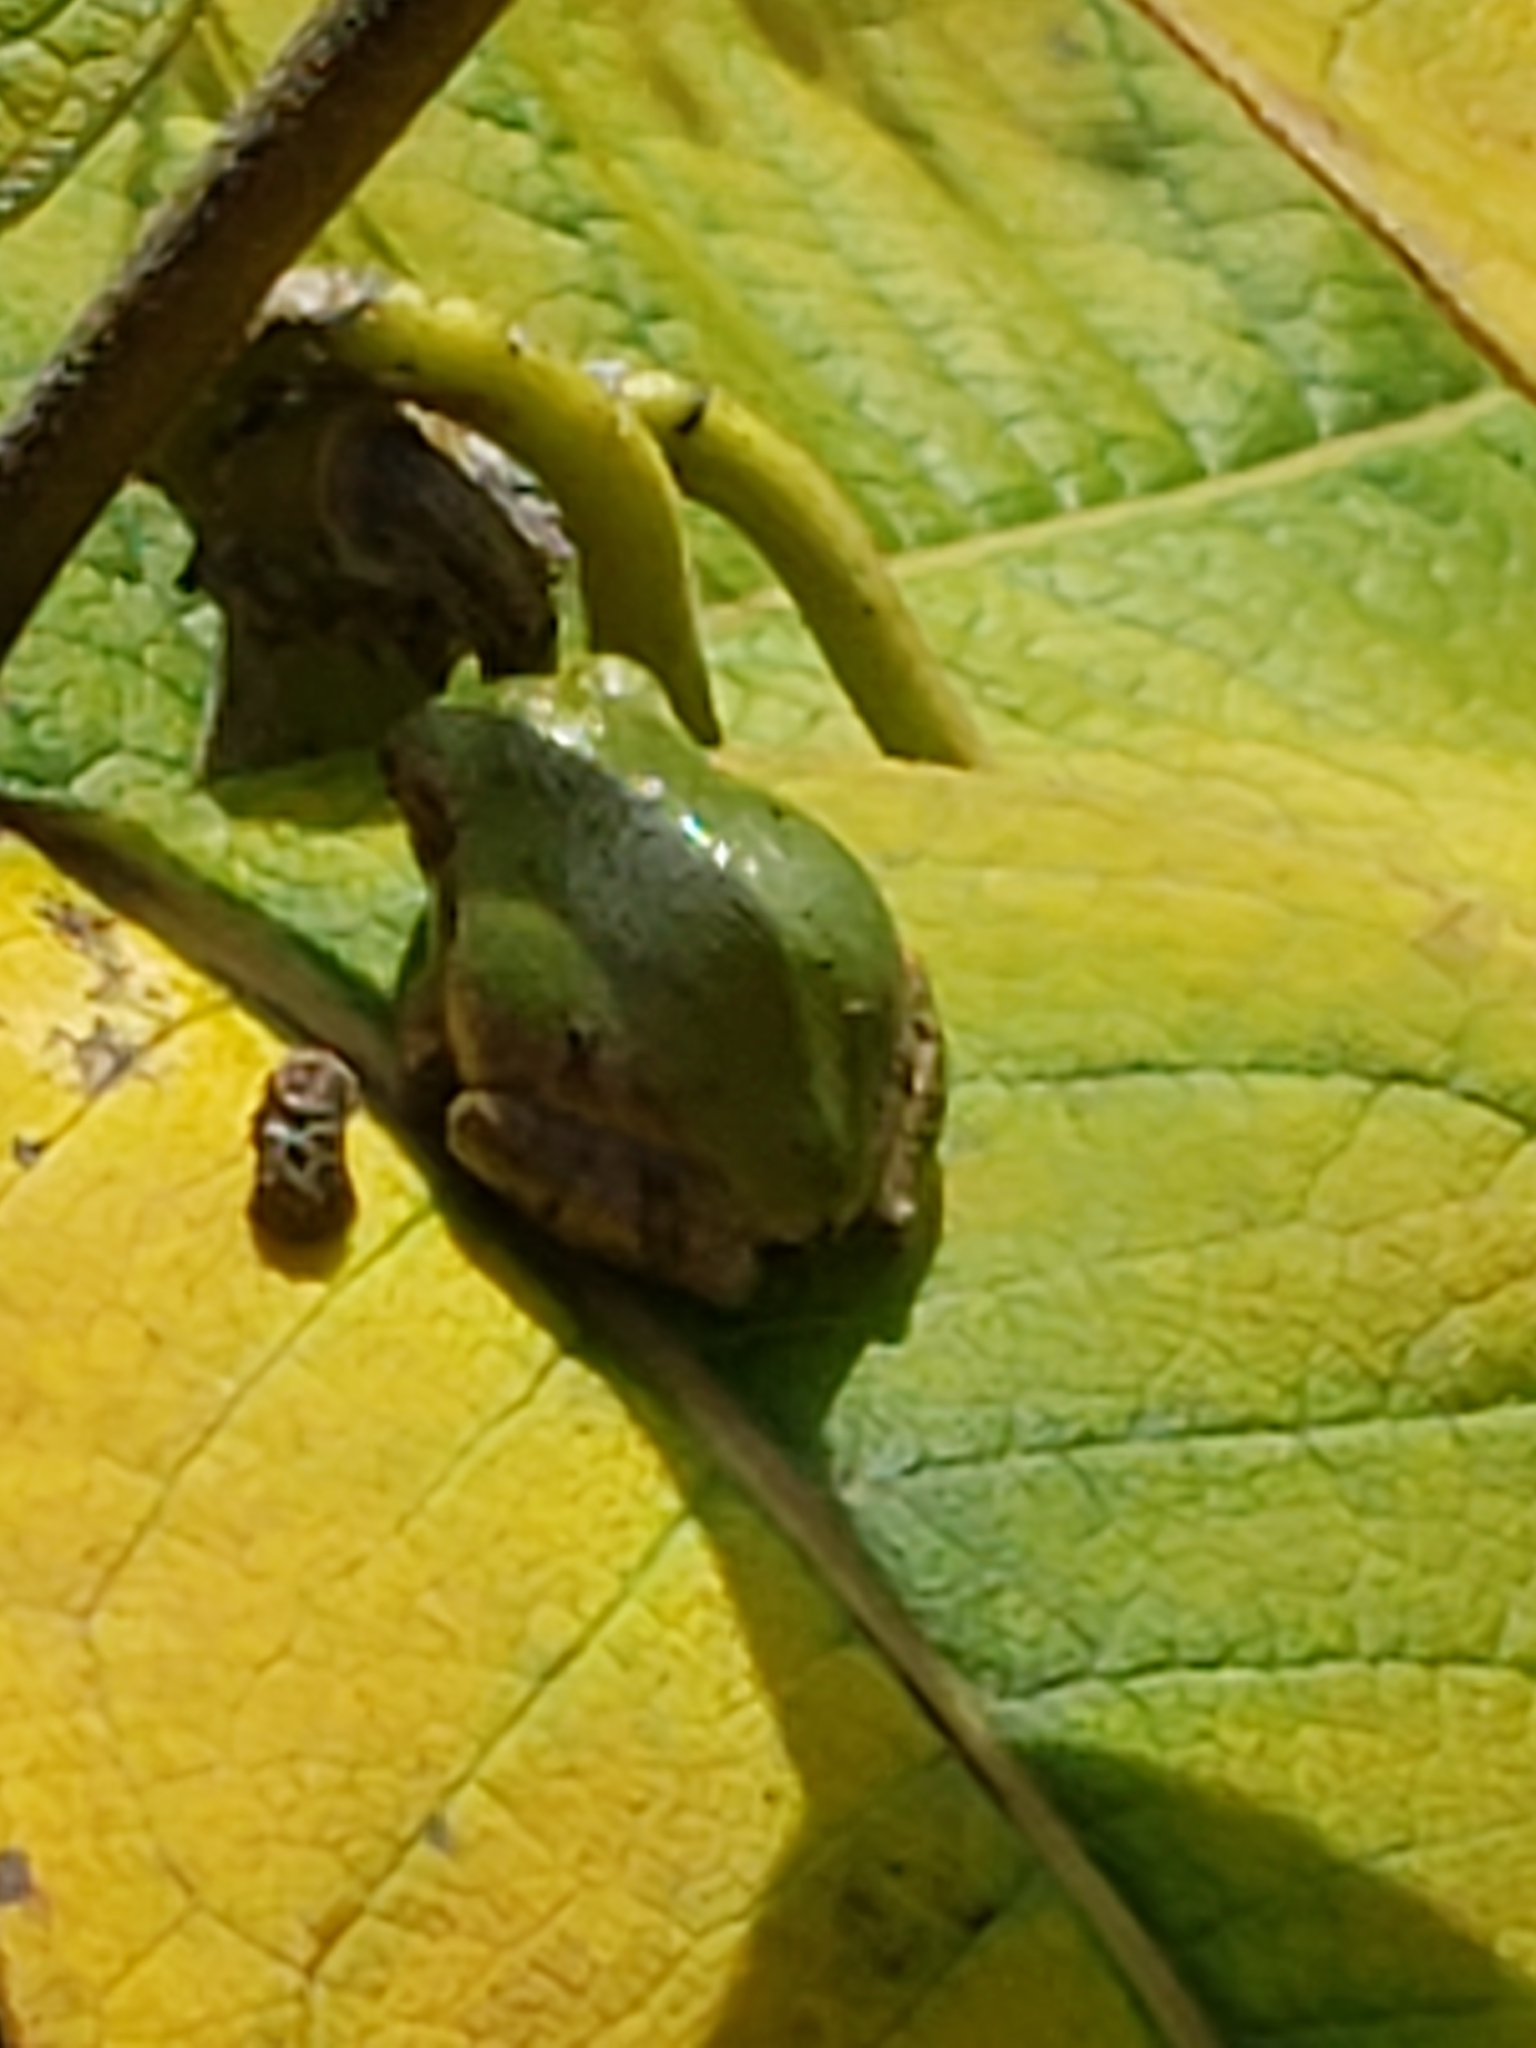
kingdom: Animalia
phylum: Chordata
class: Amphibia
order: Anura
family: Hylidae
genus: Hyla
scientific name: Hyla
